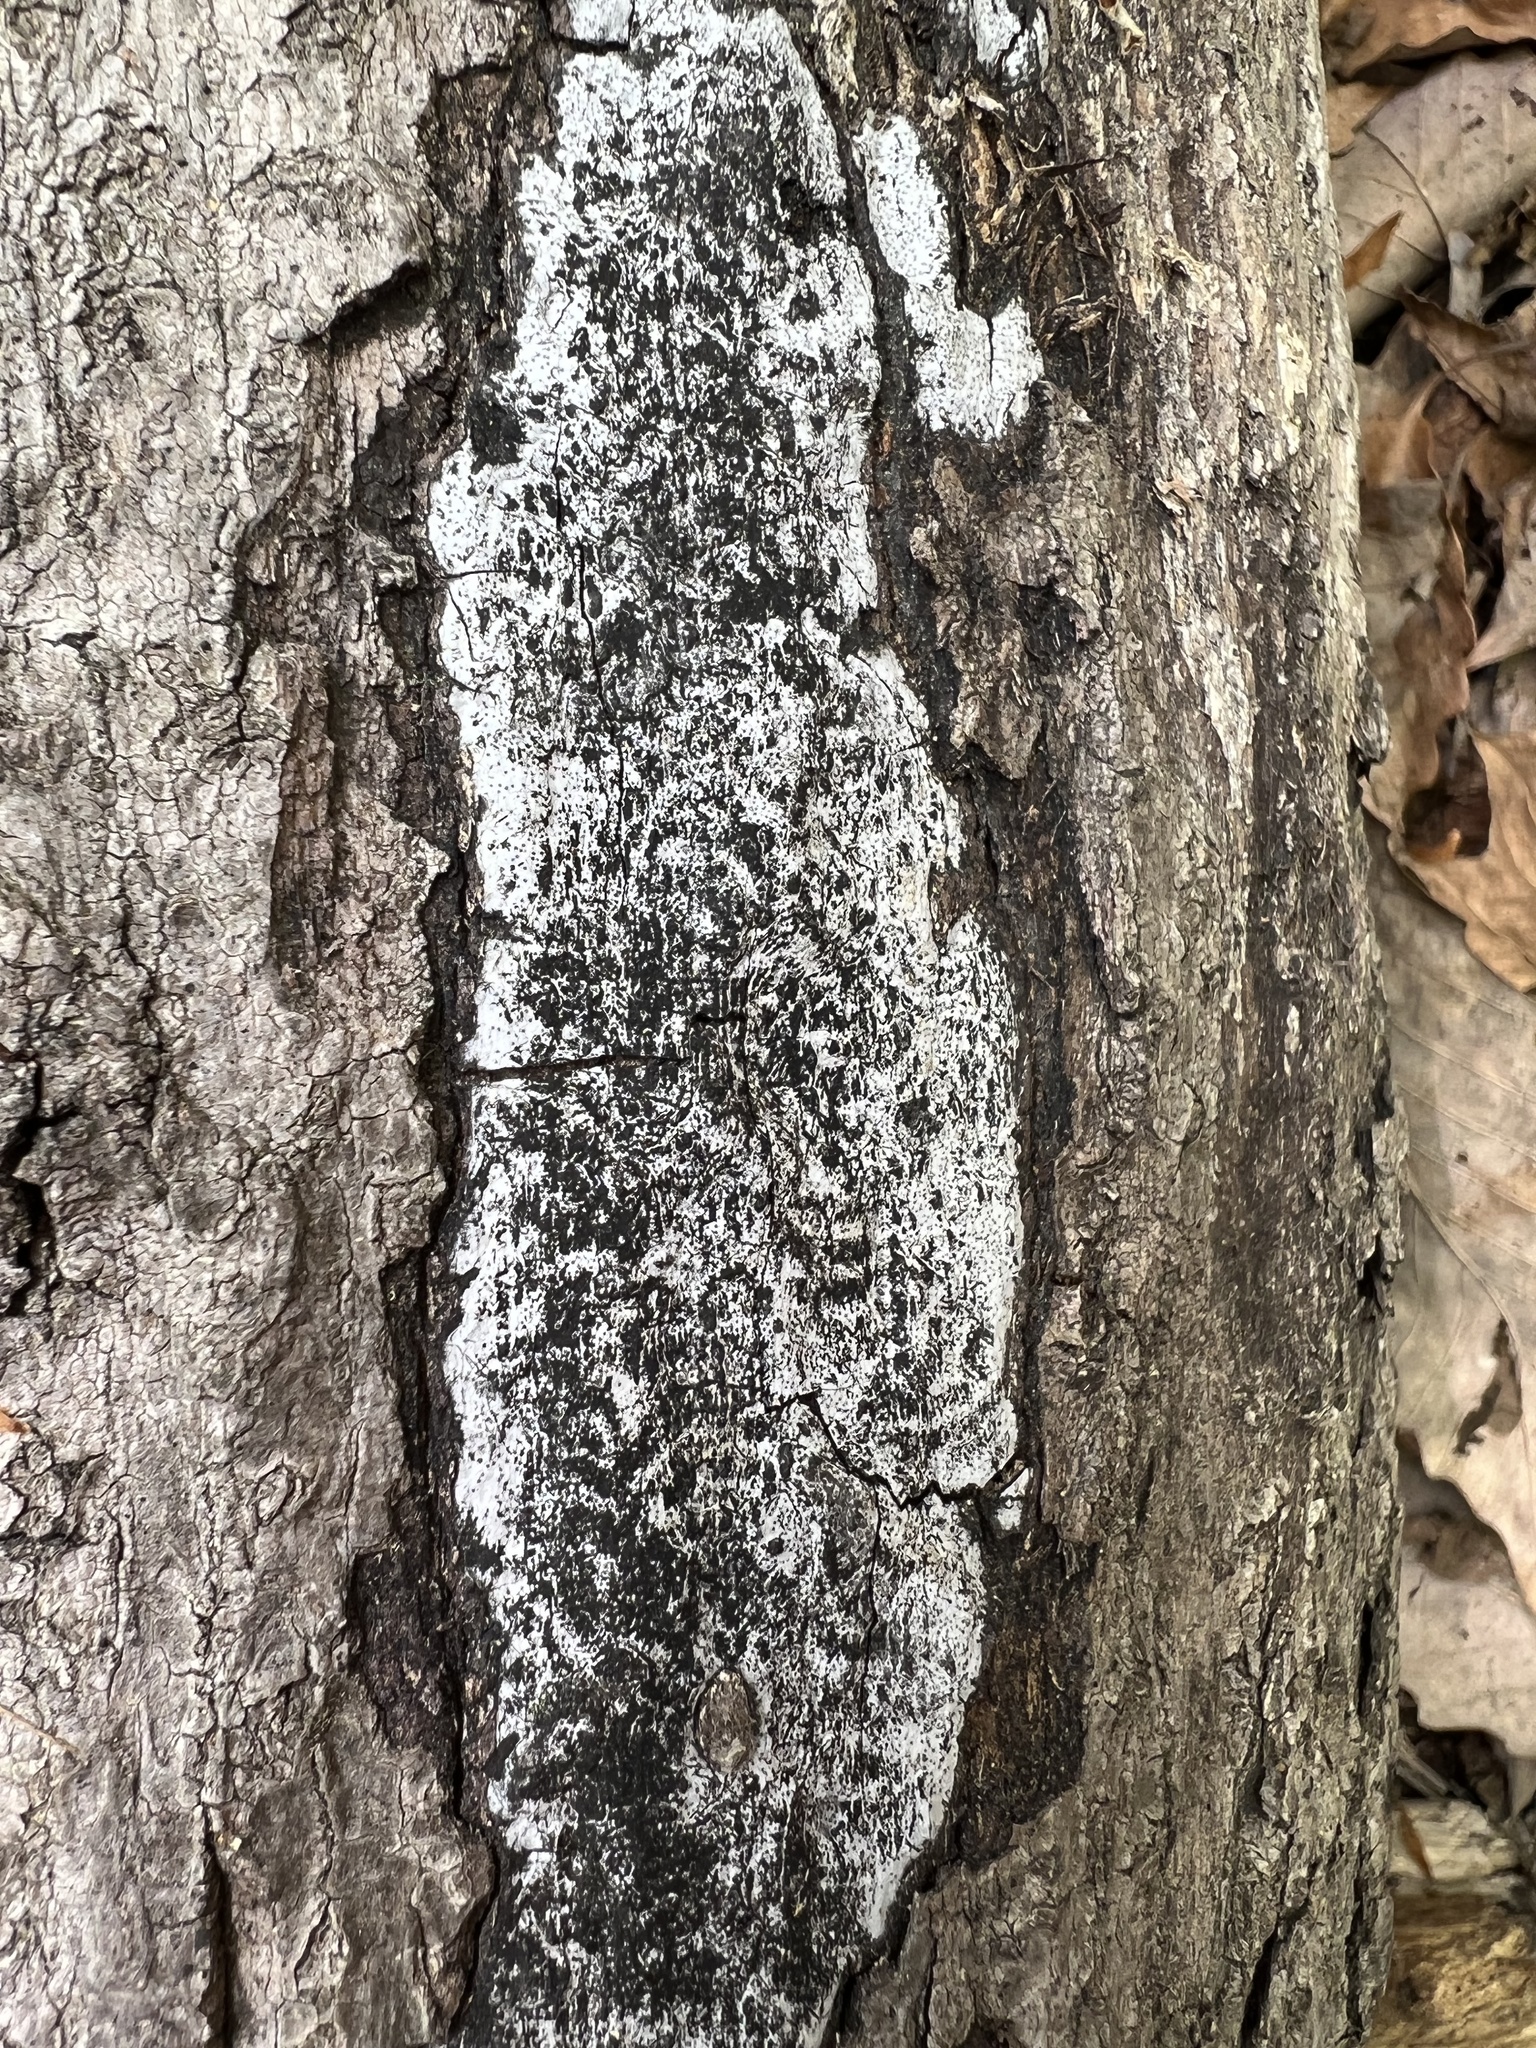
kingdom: Fungi
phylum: Ascomycota
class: Sordariomycetes
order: Xylariales
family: Graphostromataceae
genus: Biscogniauxia
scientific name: Biscogniauxia atropunctata
